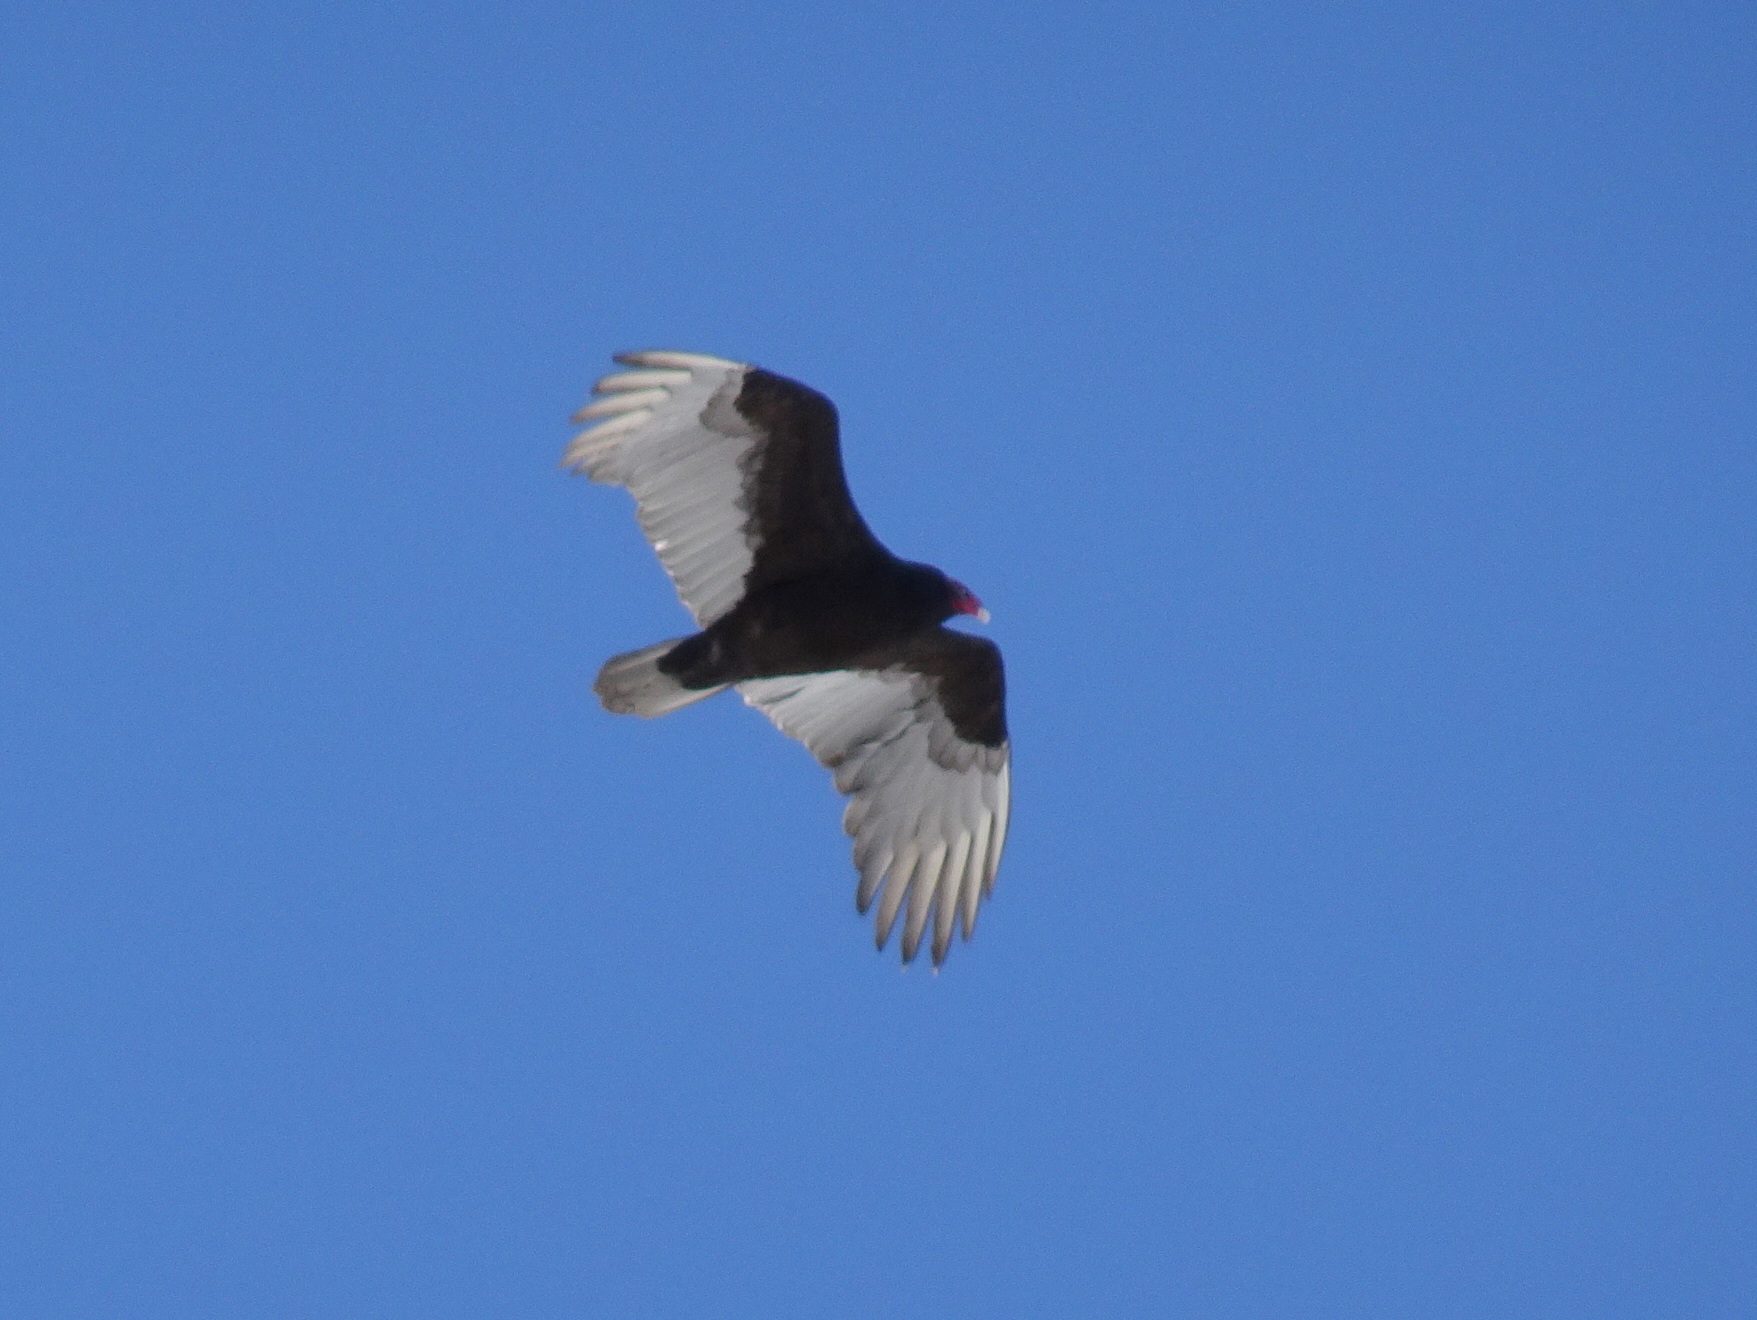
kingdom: Animalia
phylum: Chordata
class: Aves
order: Accipitriformes
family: Cathartidae
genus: Cathartes
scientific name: Cathartes aura
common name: Turkey vulture
